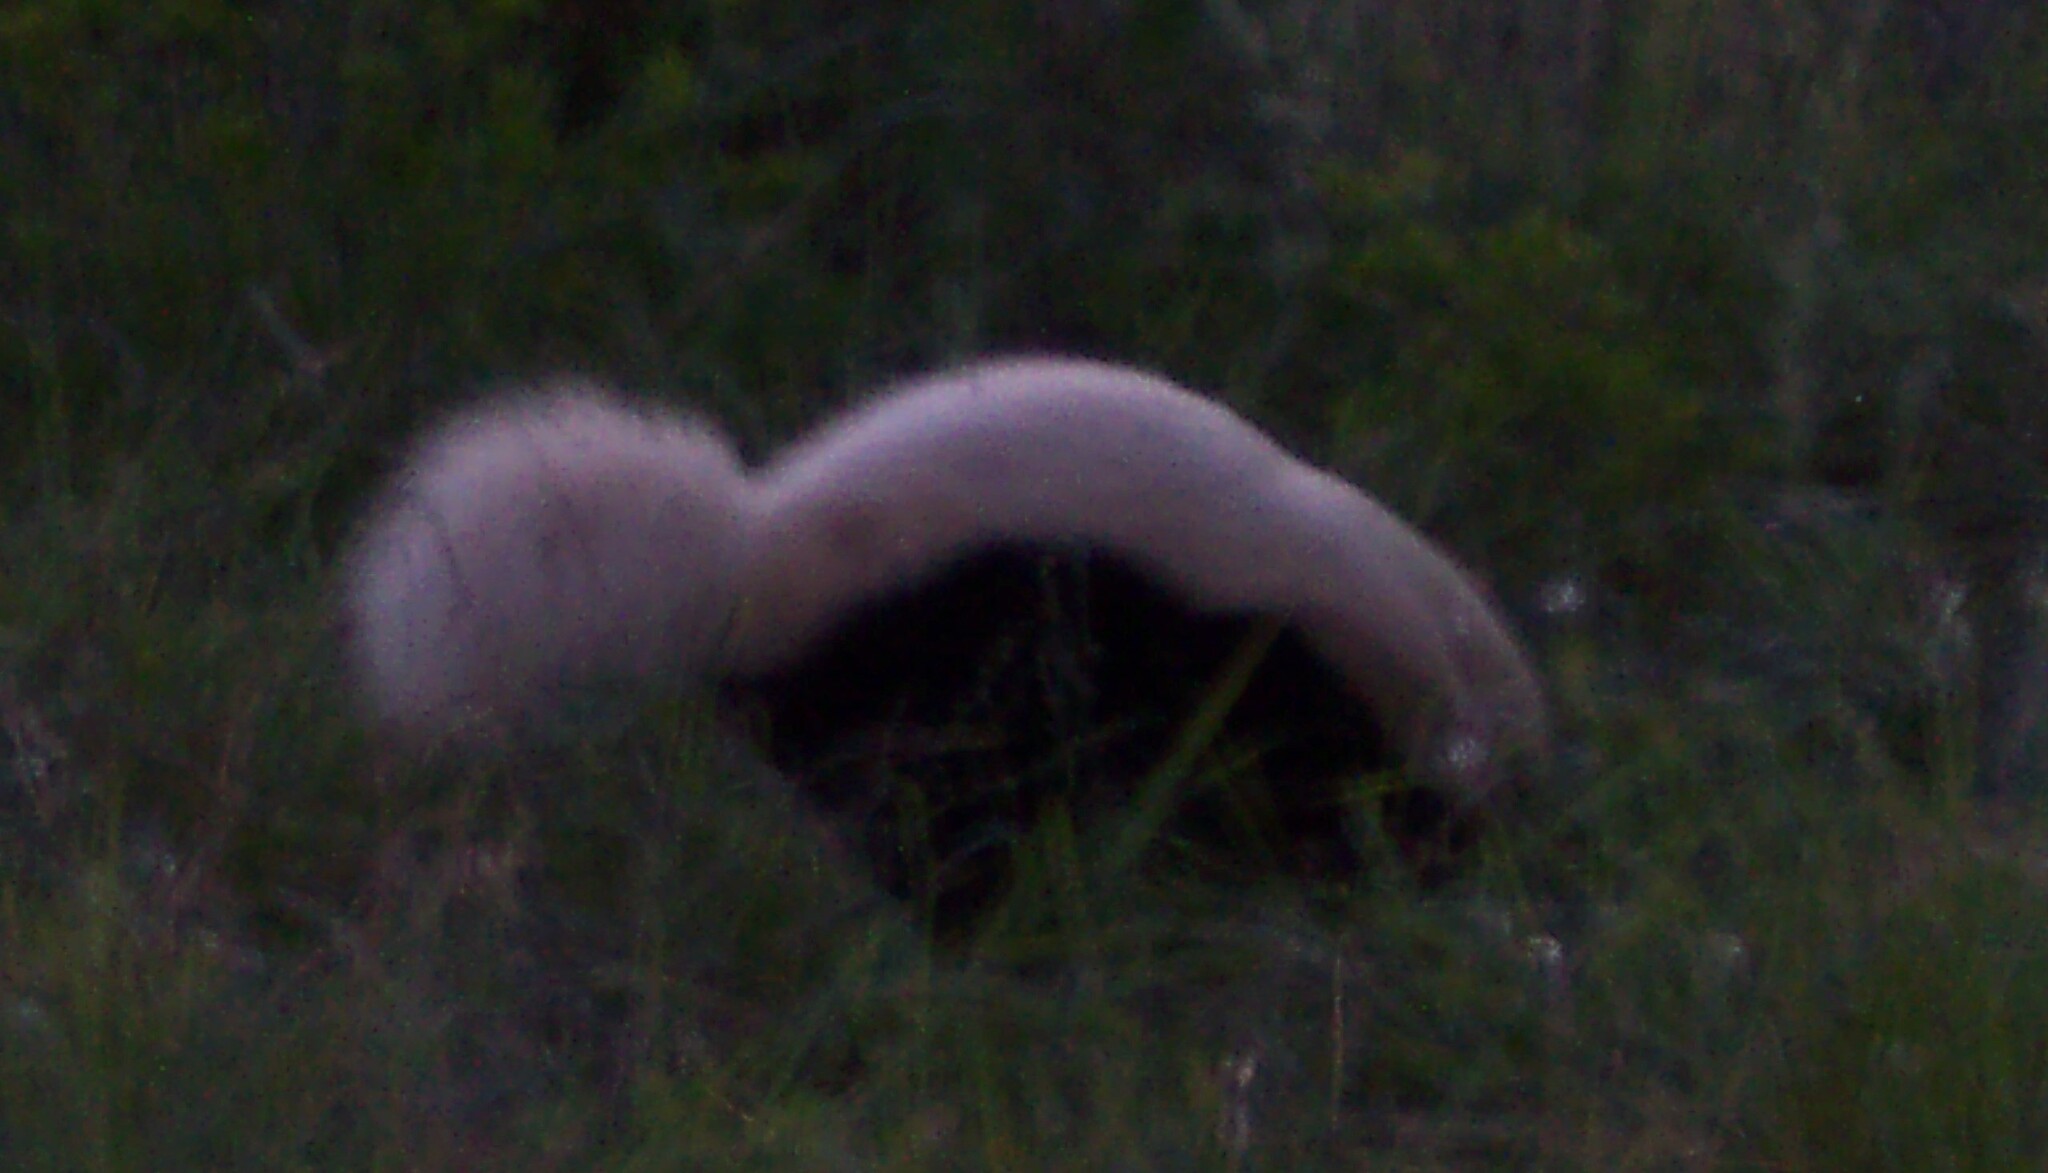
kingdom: Animalia
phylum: Chordata
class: Mammalia
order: Carnivora
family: Mephitidae
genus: Conepatus
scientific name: Conepatus leuconotus
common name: Eastern hog-nosed skunk
